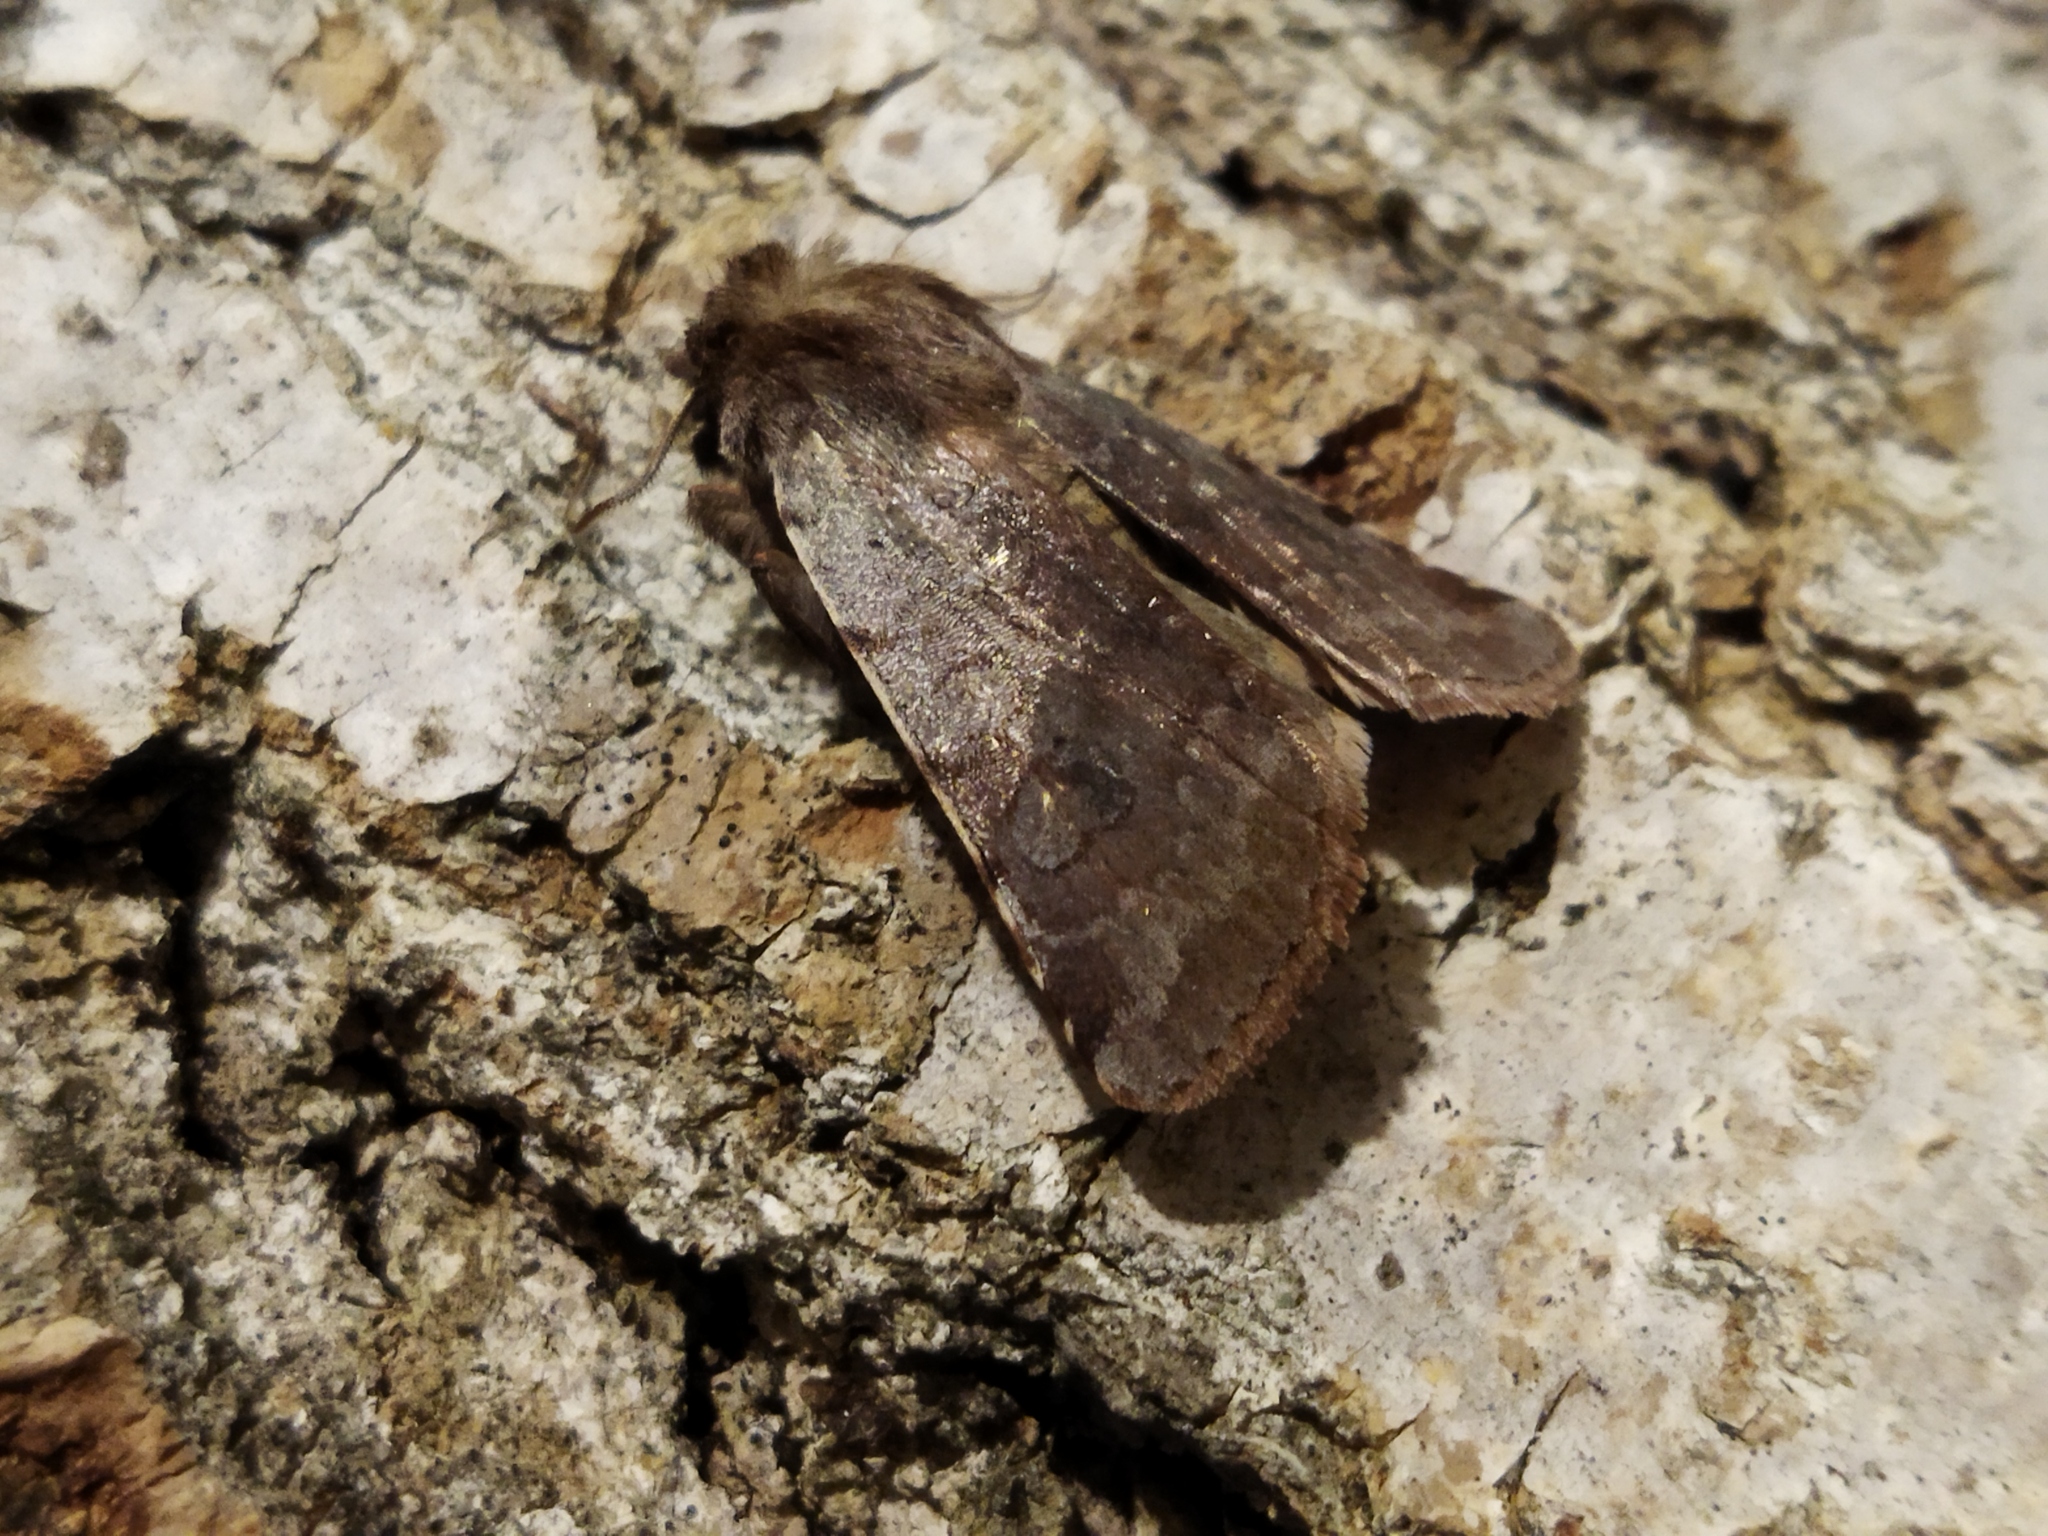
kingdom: Animalia
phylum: Arthropoda
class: Insecta
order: Lepidoptera
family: Noctuidae
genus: Cerastis
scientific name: Cerastis rubricosa
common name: Red chestnut
